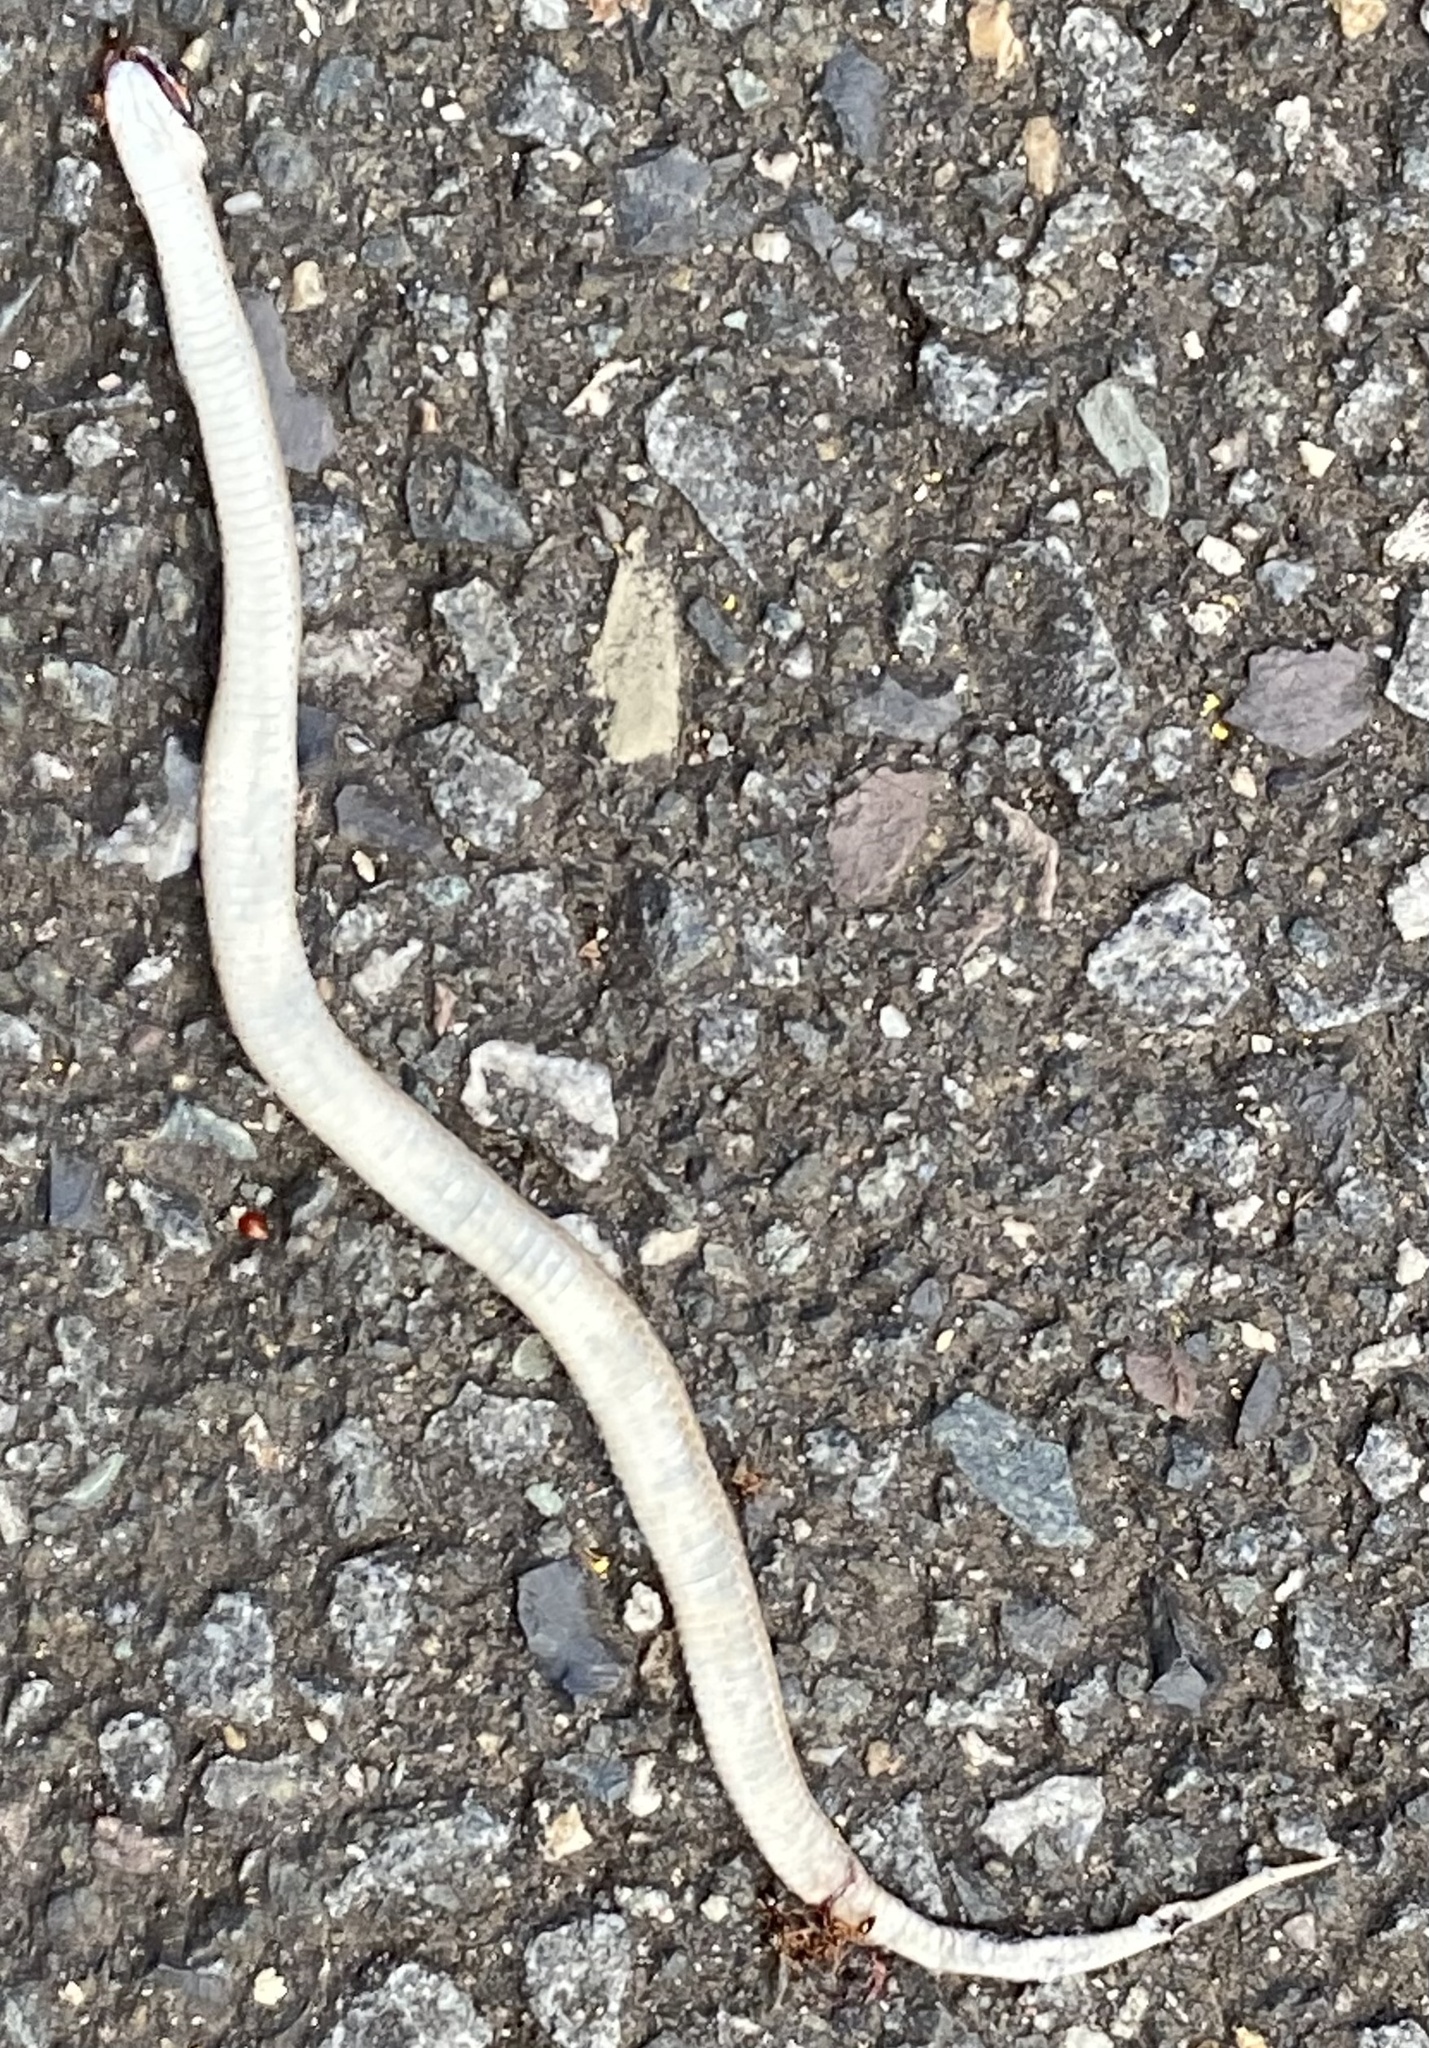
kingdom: Animalia
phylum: Chordata
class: Squamata
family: Colubridae
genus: Storeria
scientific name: Storeria dekayi
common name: (dekay’s) brown snake
